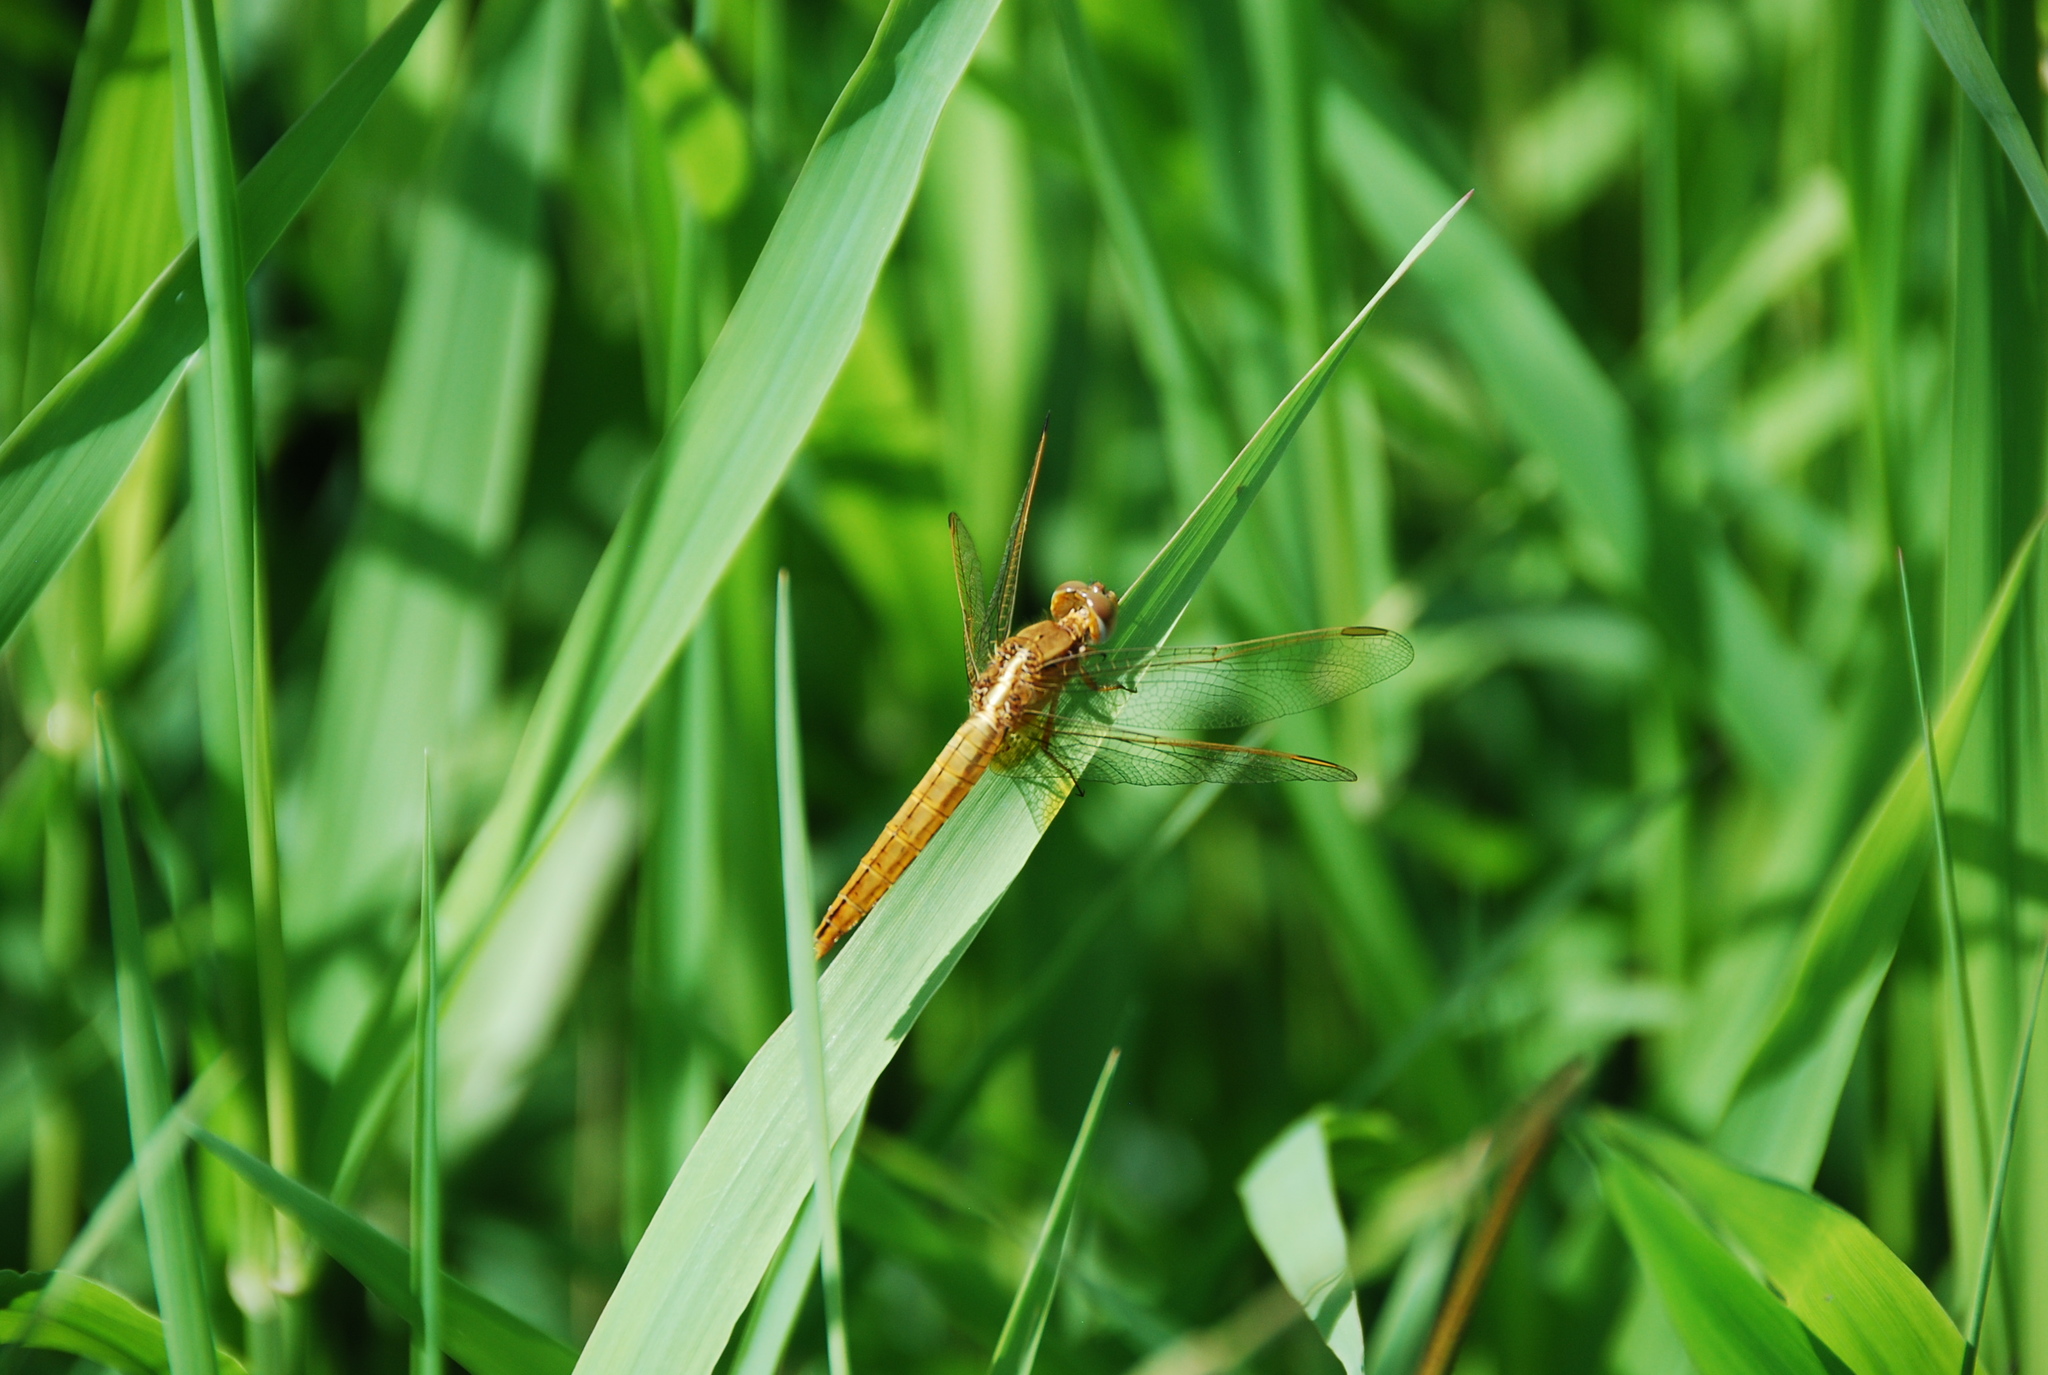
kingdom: Animalia
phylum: Arthropoda
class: Insecta
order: Odonata
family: Libellulidae
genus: Crocothemis
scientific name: Crocothemis erythraea
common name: Scarlet dragonfly
